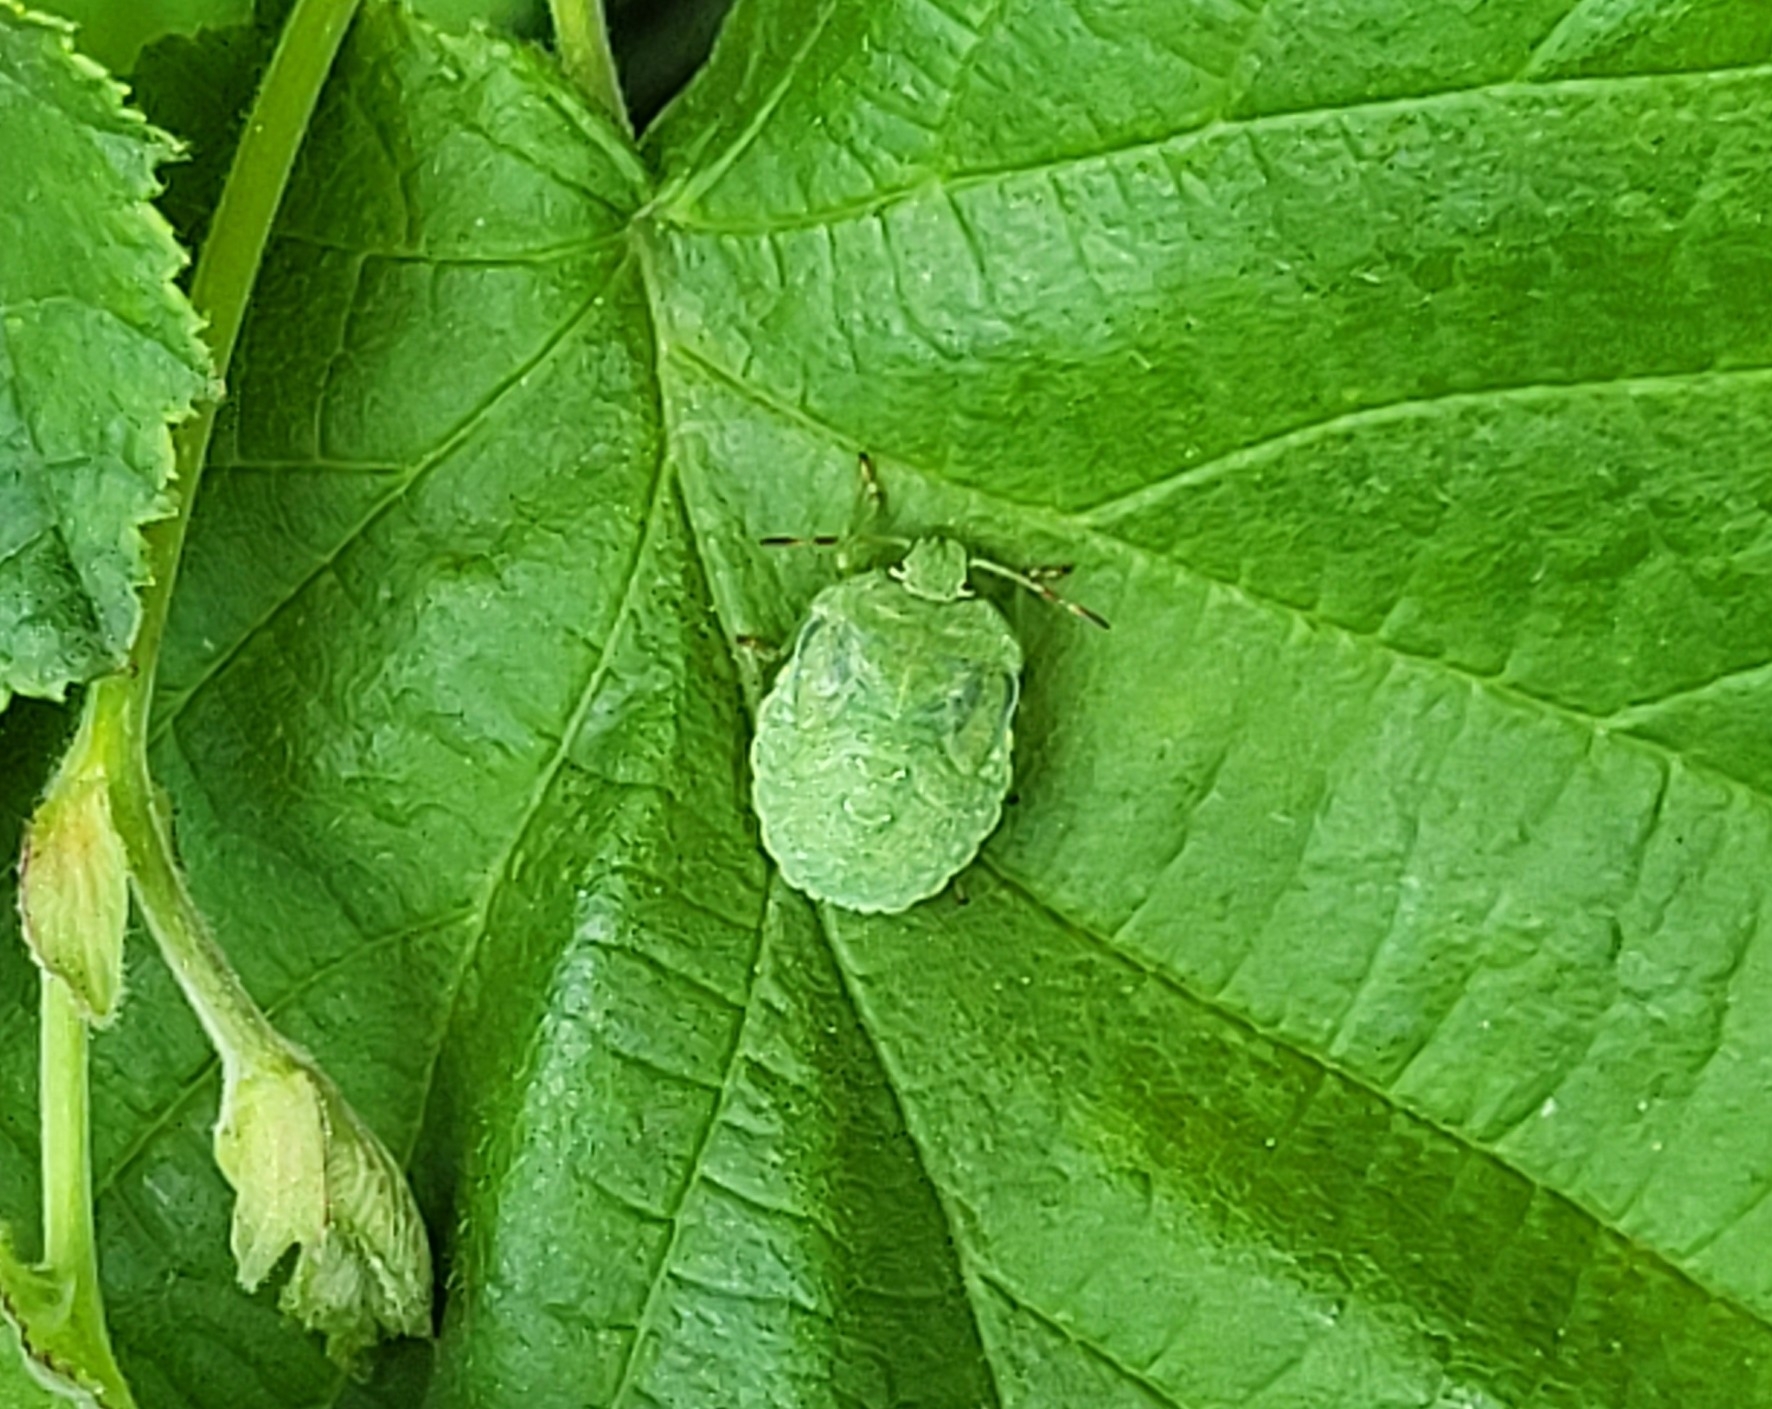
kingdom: Animalia
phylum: Arthropoda
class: Insecta
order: Hemiptera
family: Pentatomidae
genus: Palomena
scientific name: Palomena prasina
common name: Green shieldbug
